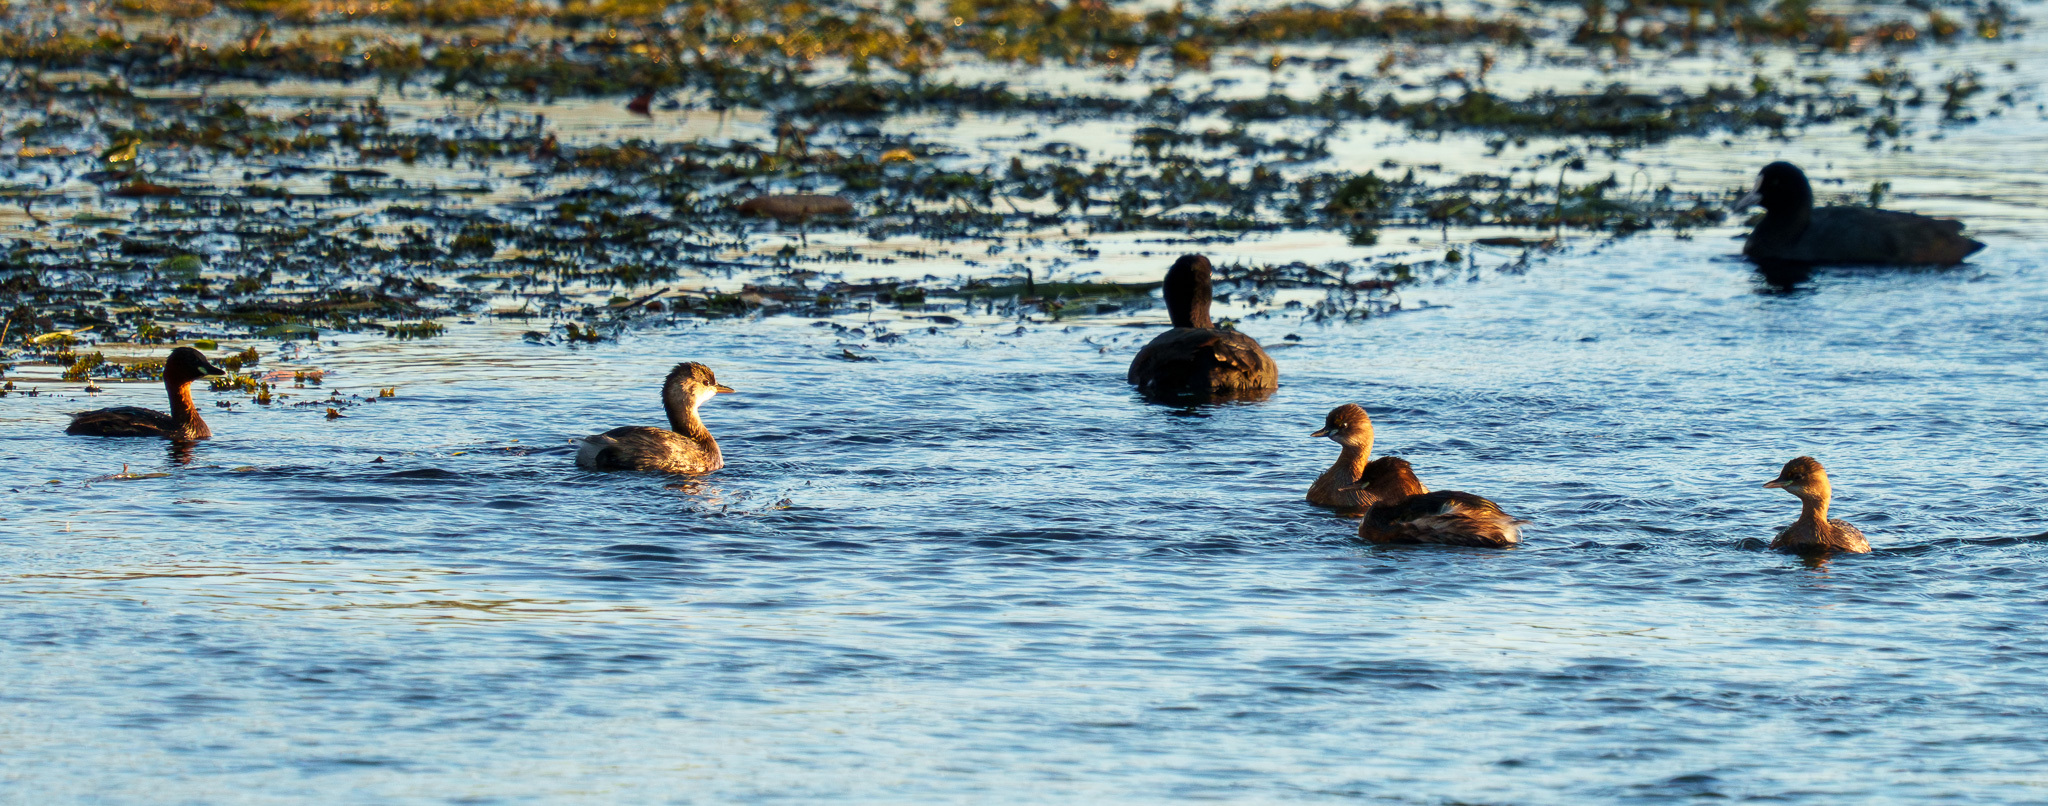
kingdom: Animalia
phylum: Chordata
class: Aves
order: Podicipediformes
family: Podicipedidae
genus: Tachybaptus
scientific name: Tachybaptus ruficollis
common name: Little grebe
